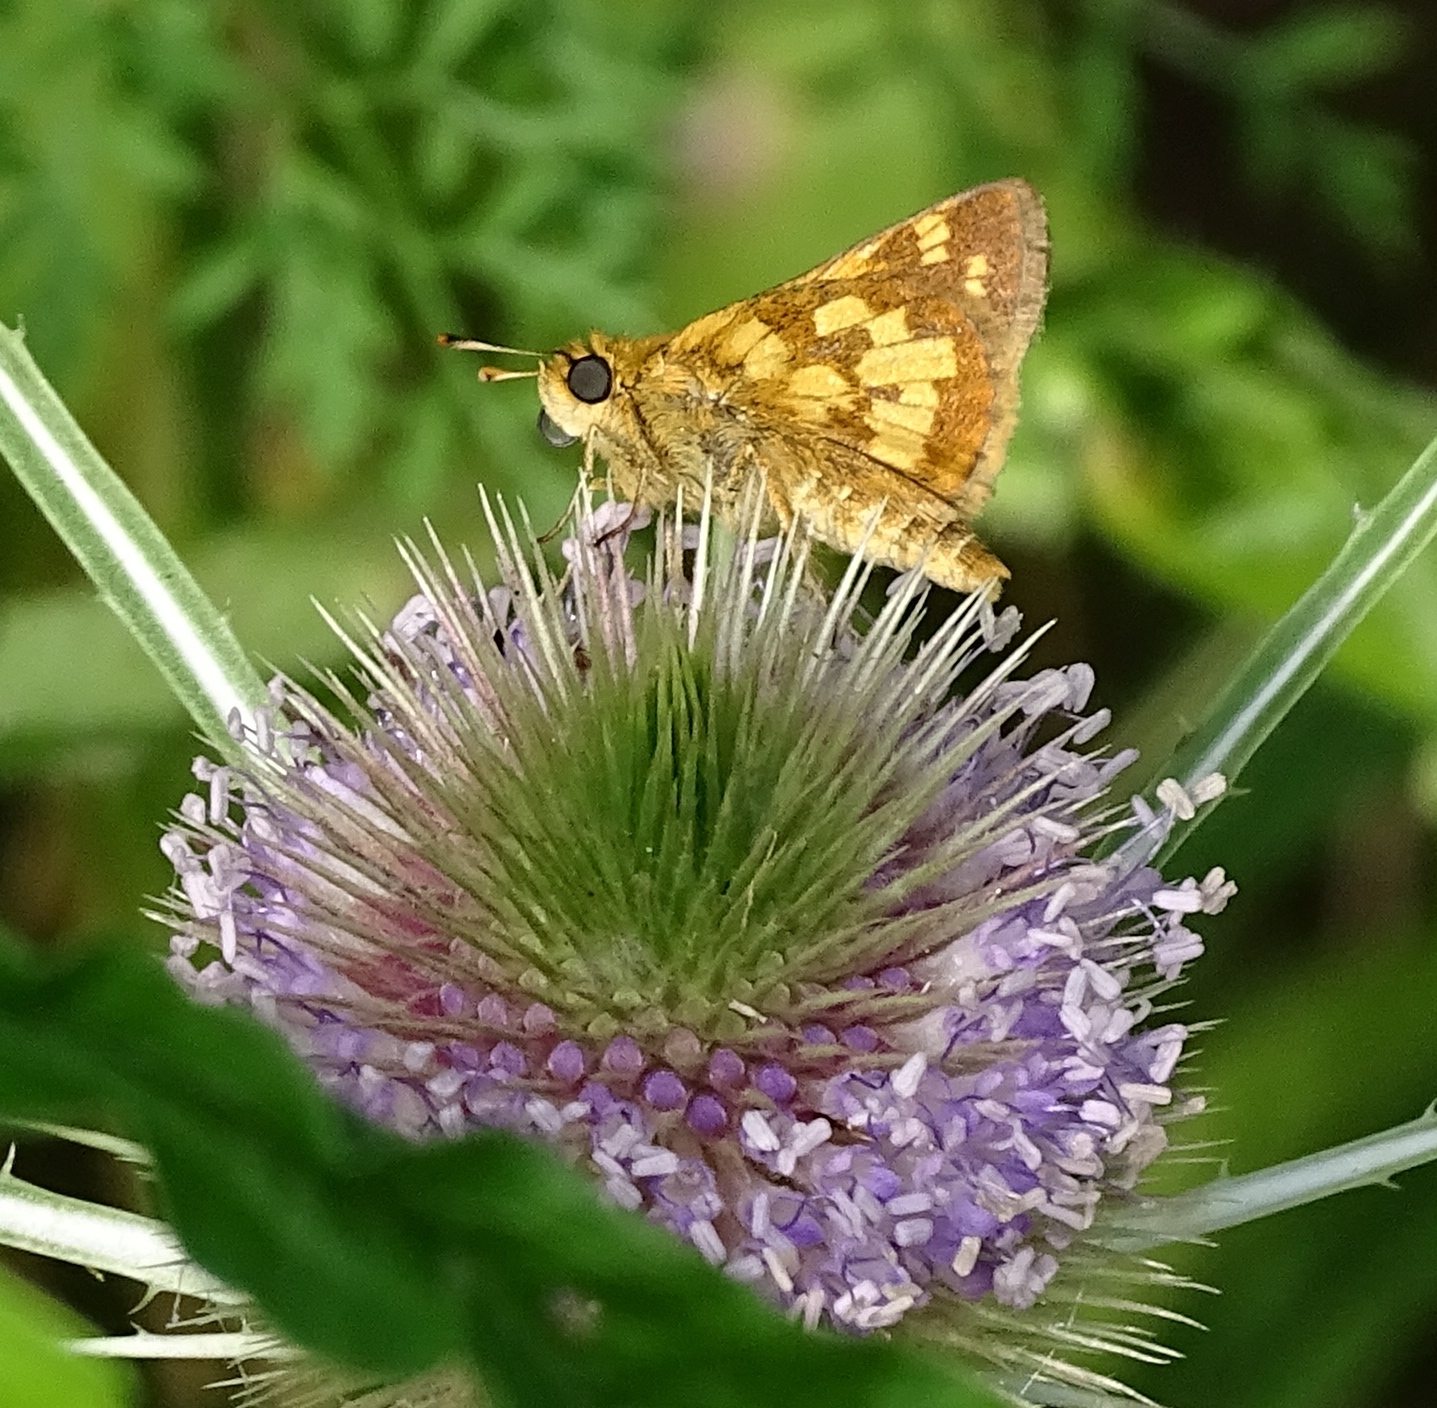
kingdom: Animalia
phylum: Arthropoda
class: Insecta
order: Lepidoptera
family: Hesperiidae
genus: Polites
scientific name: Polites coras
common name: Peck's skipper
